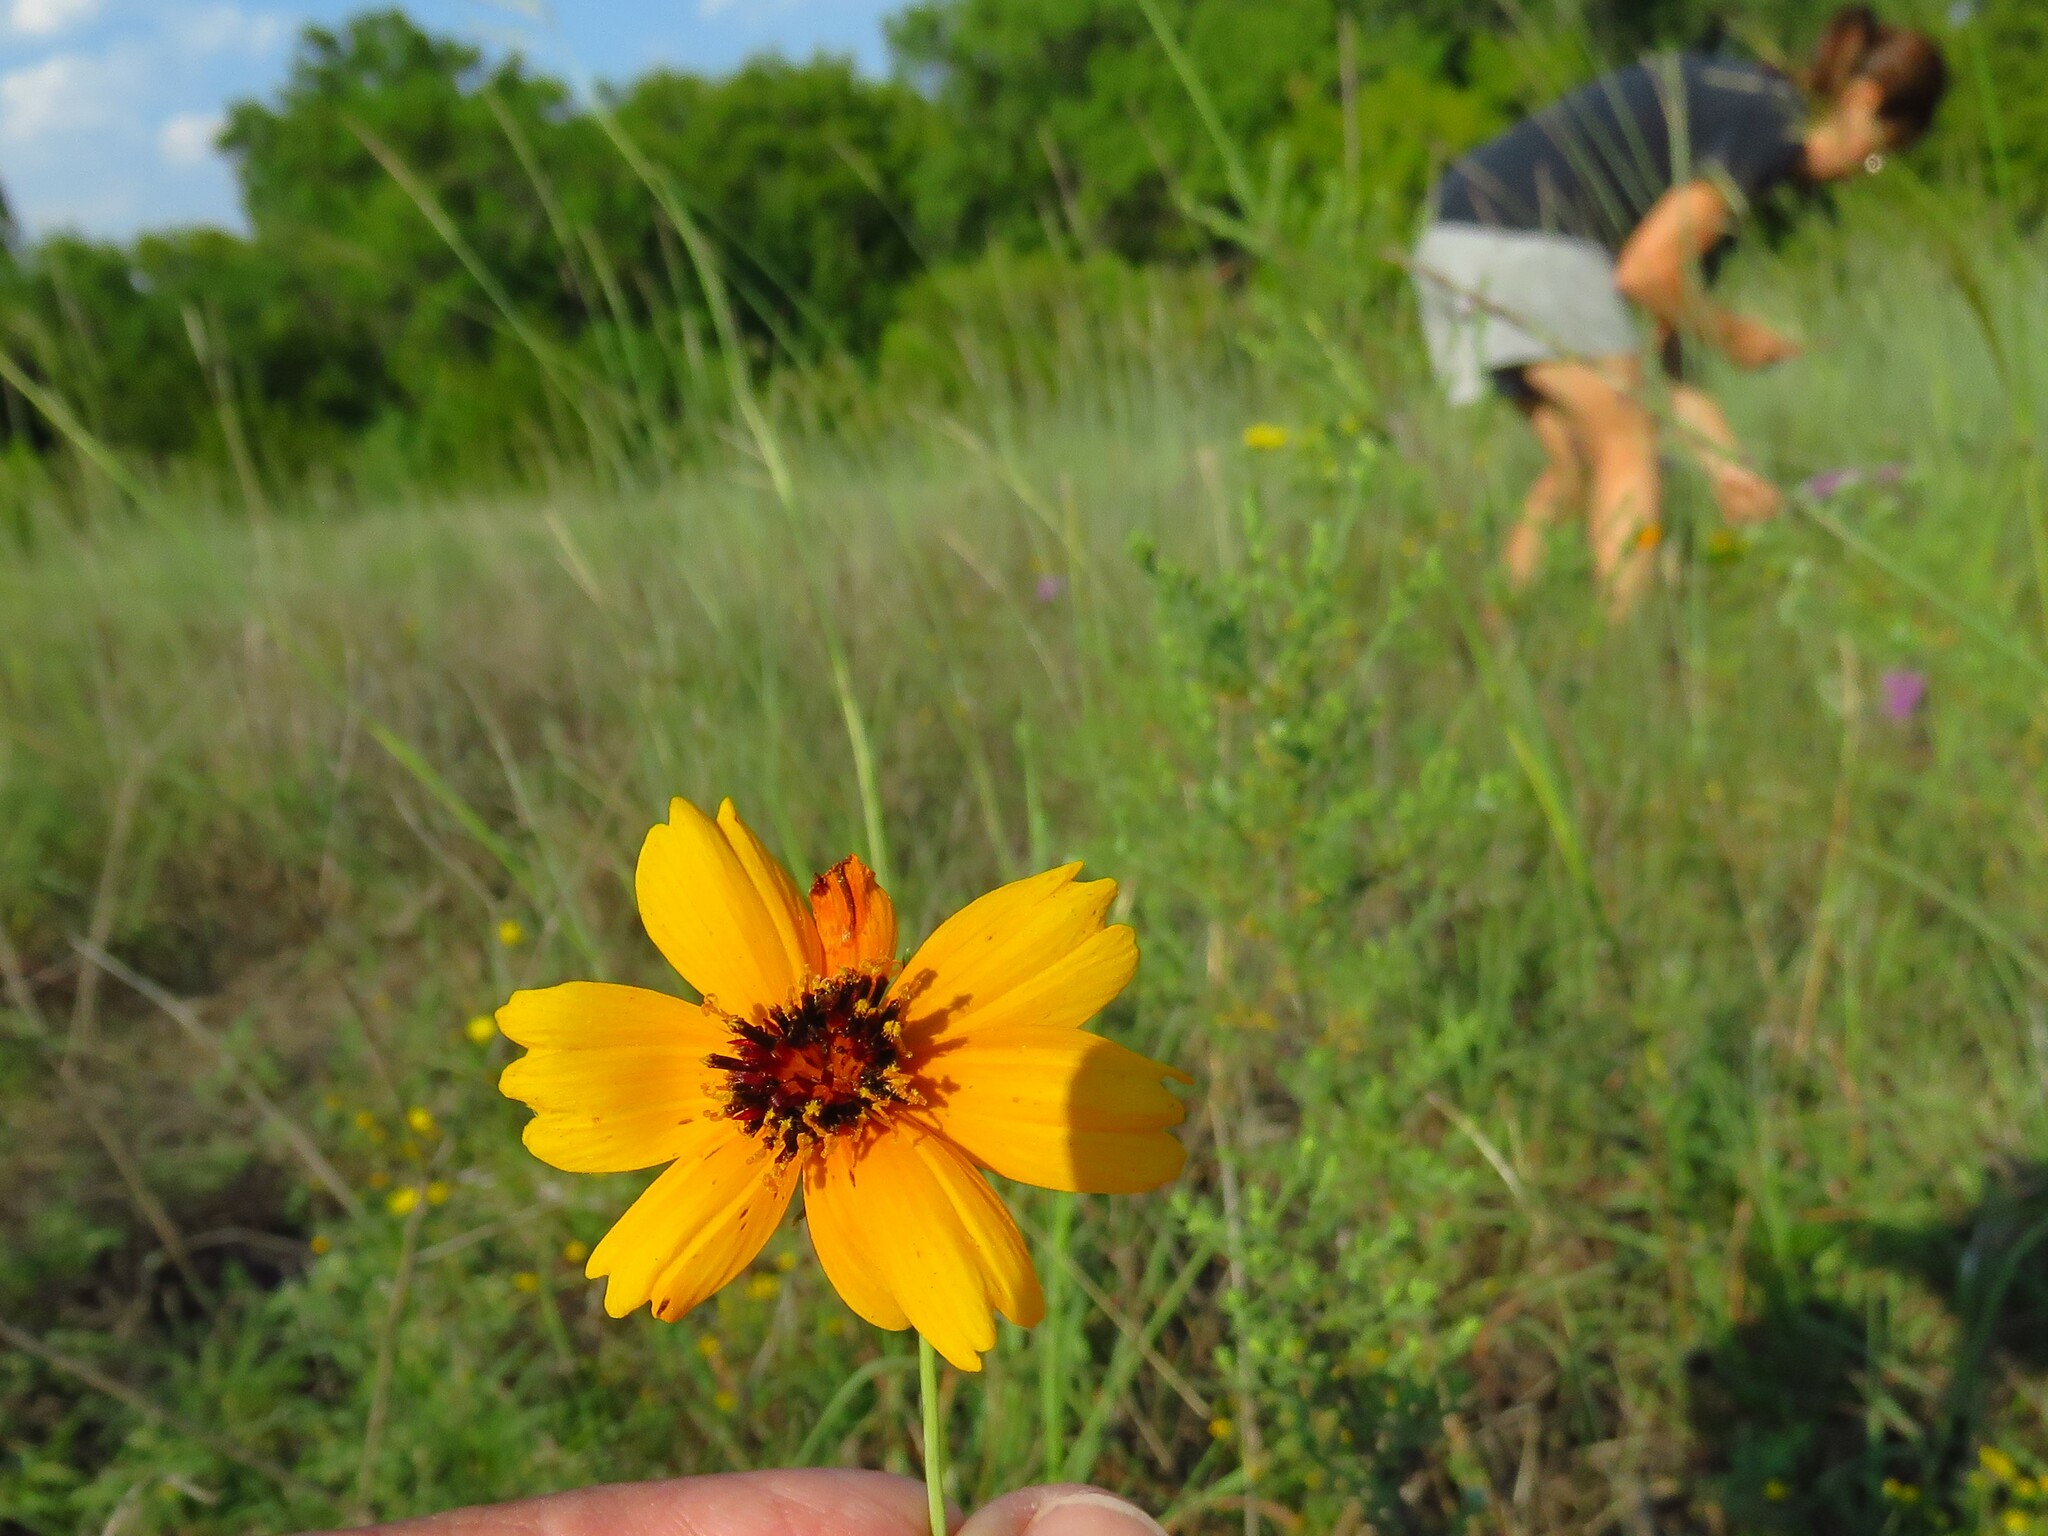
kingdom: Plantae
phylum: Tracheophyta
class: Magnoliopsida
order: Asterales
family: Asteraceae
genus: Thelesperma
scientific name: Thelesperma filifolium
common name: Stiff greenthread
